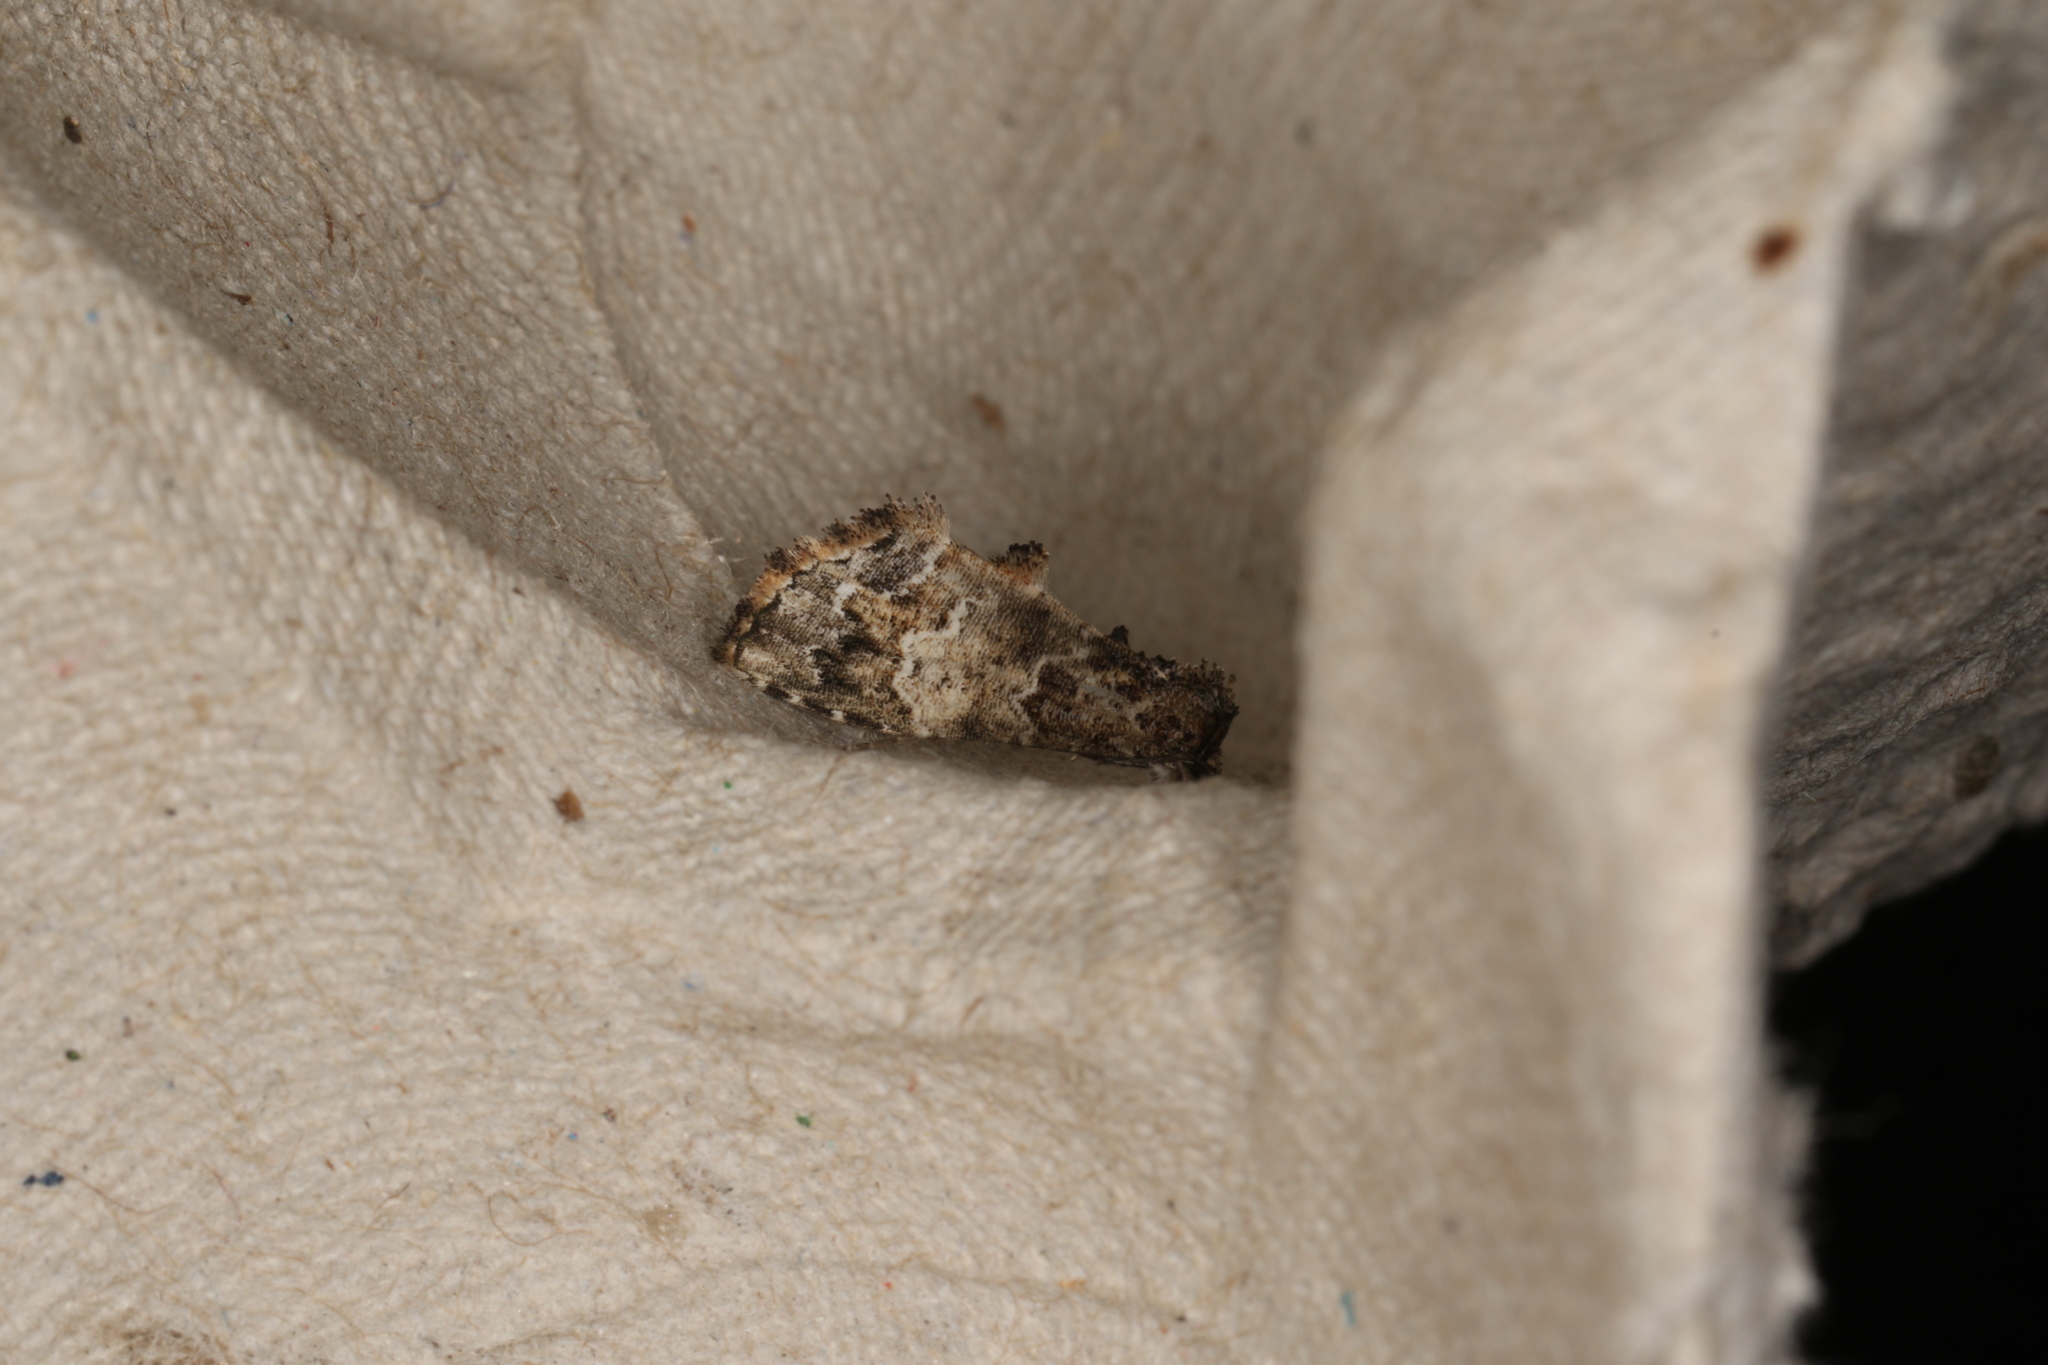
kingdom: Animalia
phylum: Arthropoda
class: Insecta
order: Lepidoptera
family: Erebidae
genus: Arrade
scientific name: Arrade destituta
